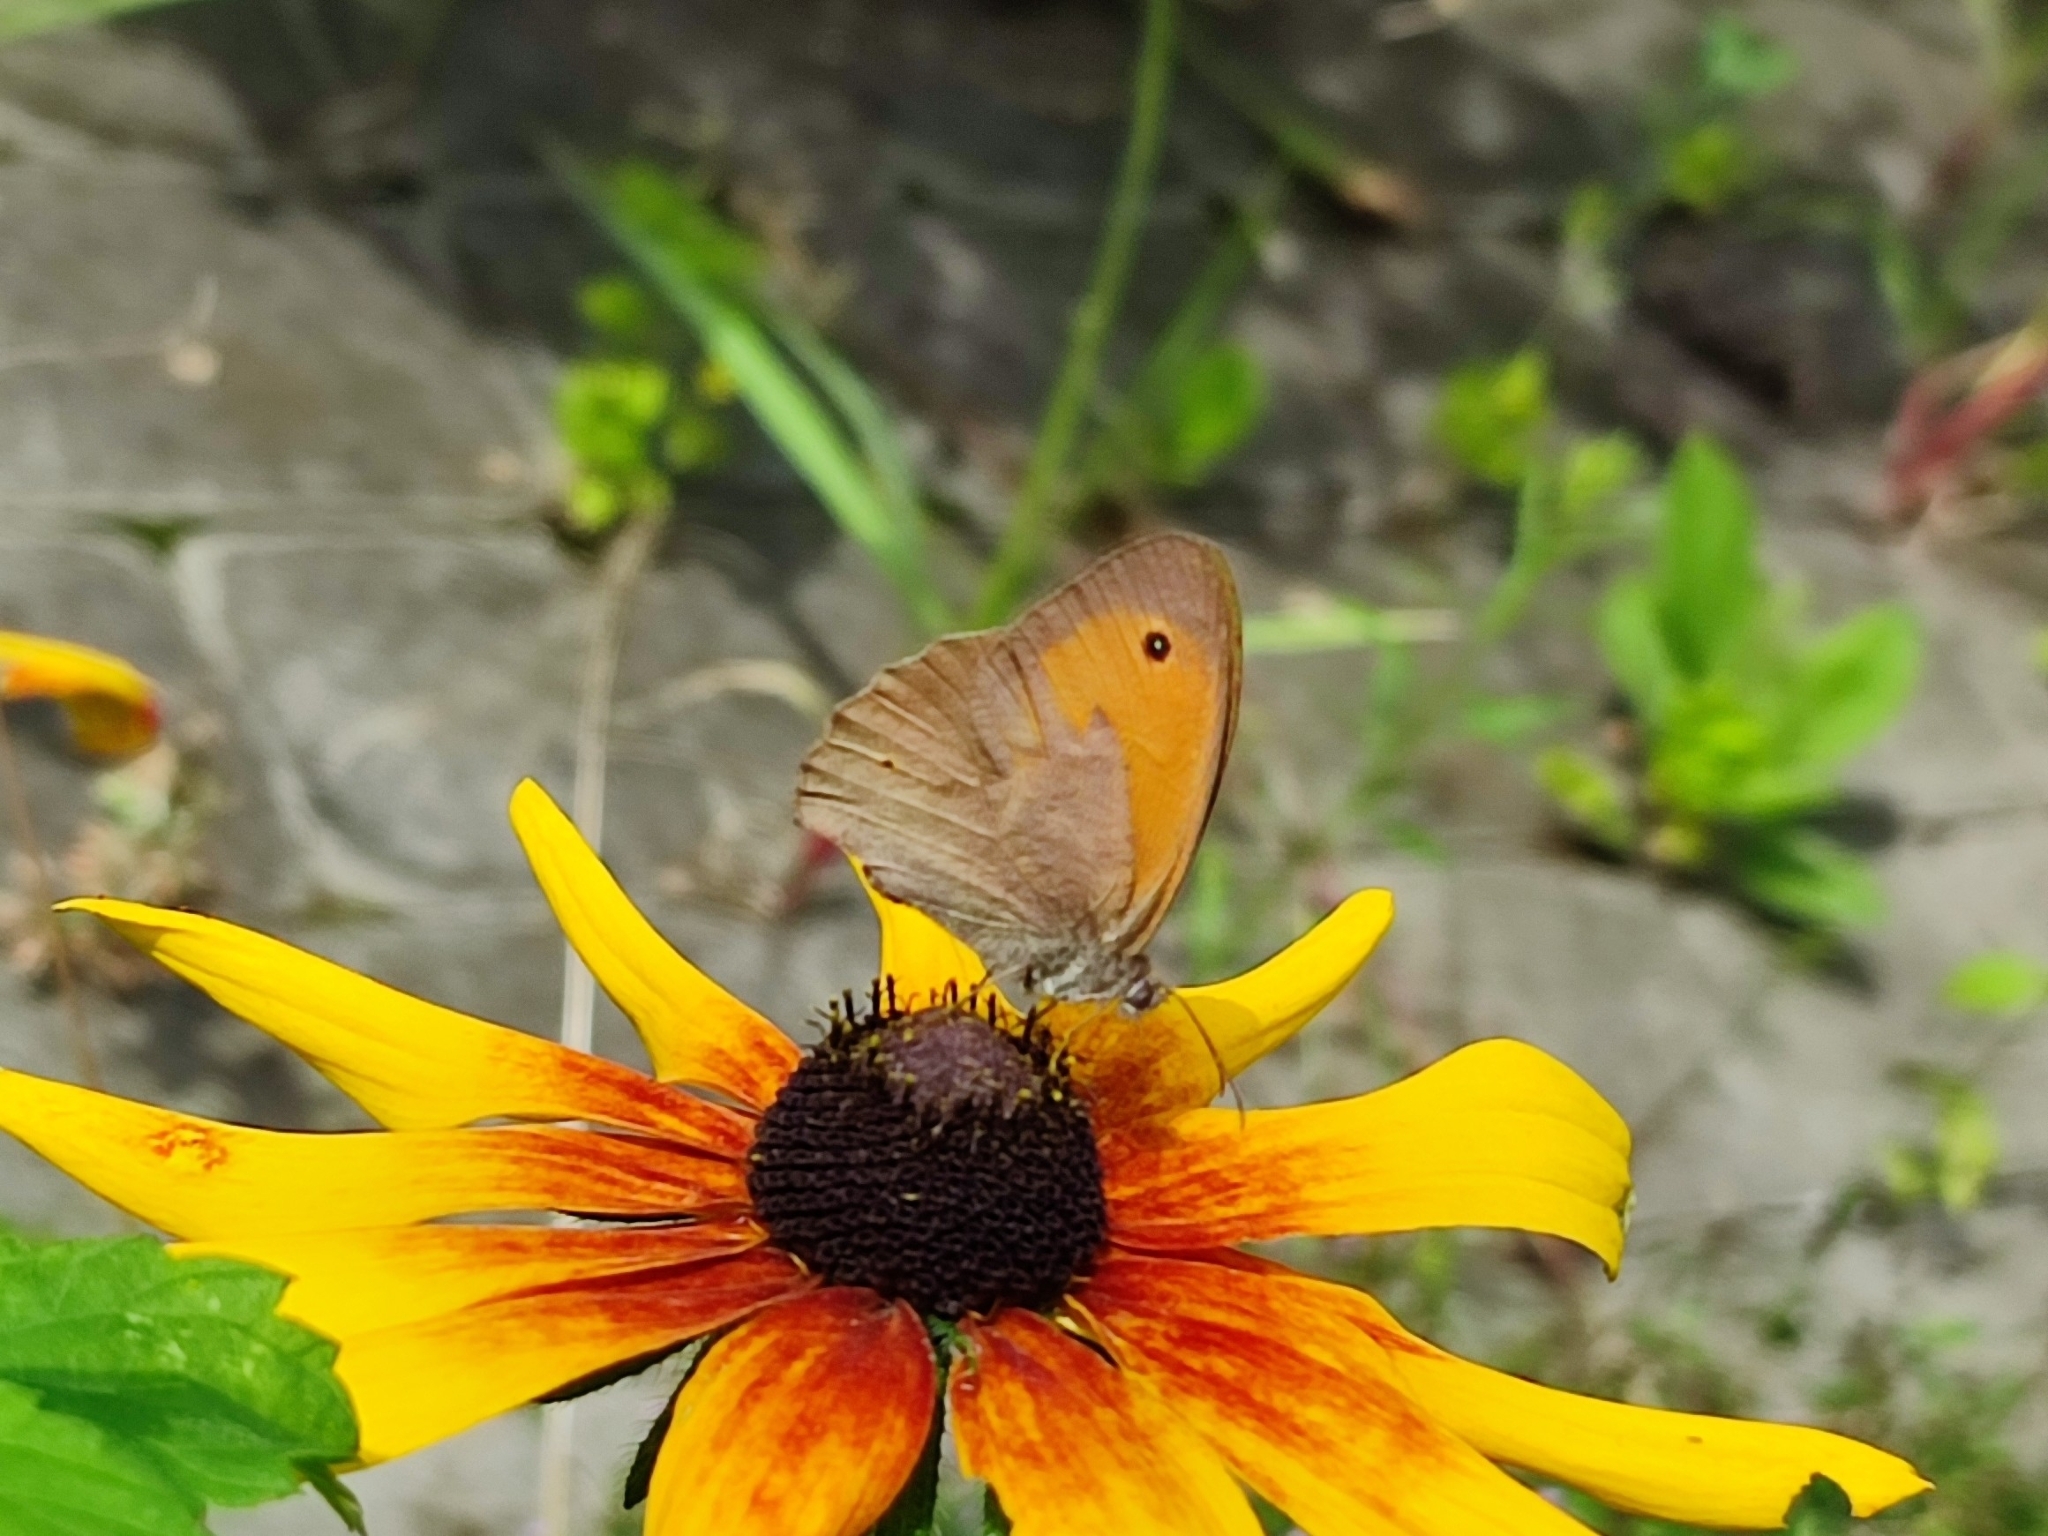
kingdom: Animalia
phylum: Arthropoda
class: Insecta
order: Lepidoptera
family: Nymphalidae
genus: Maniola
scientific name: Maniola jurtina
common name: Meadow brown
